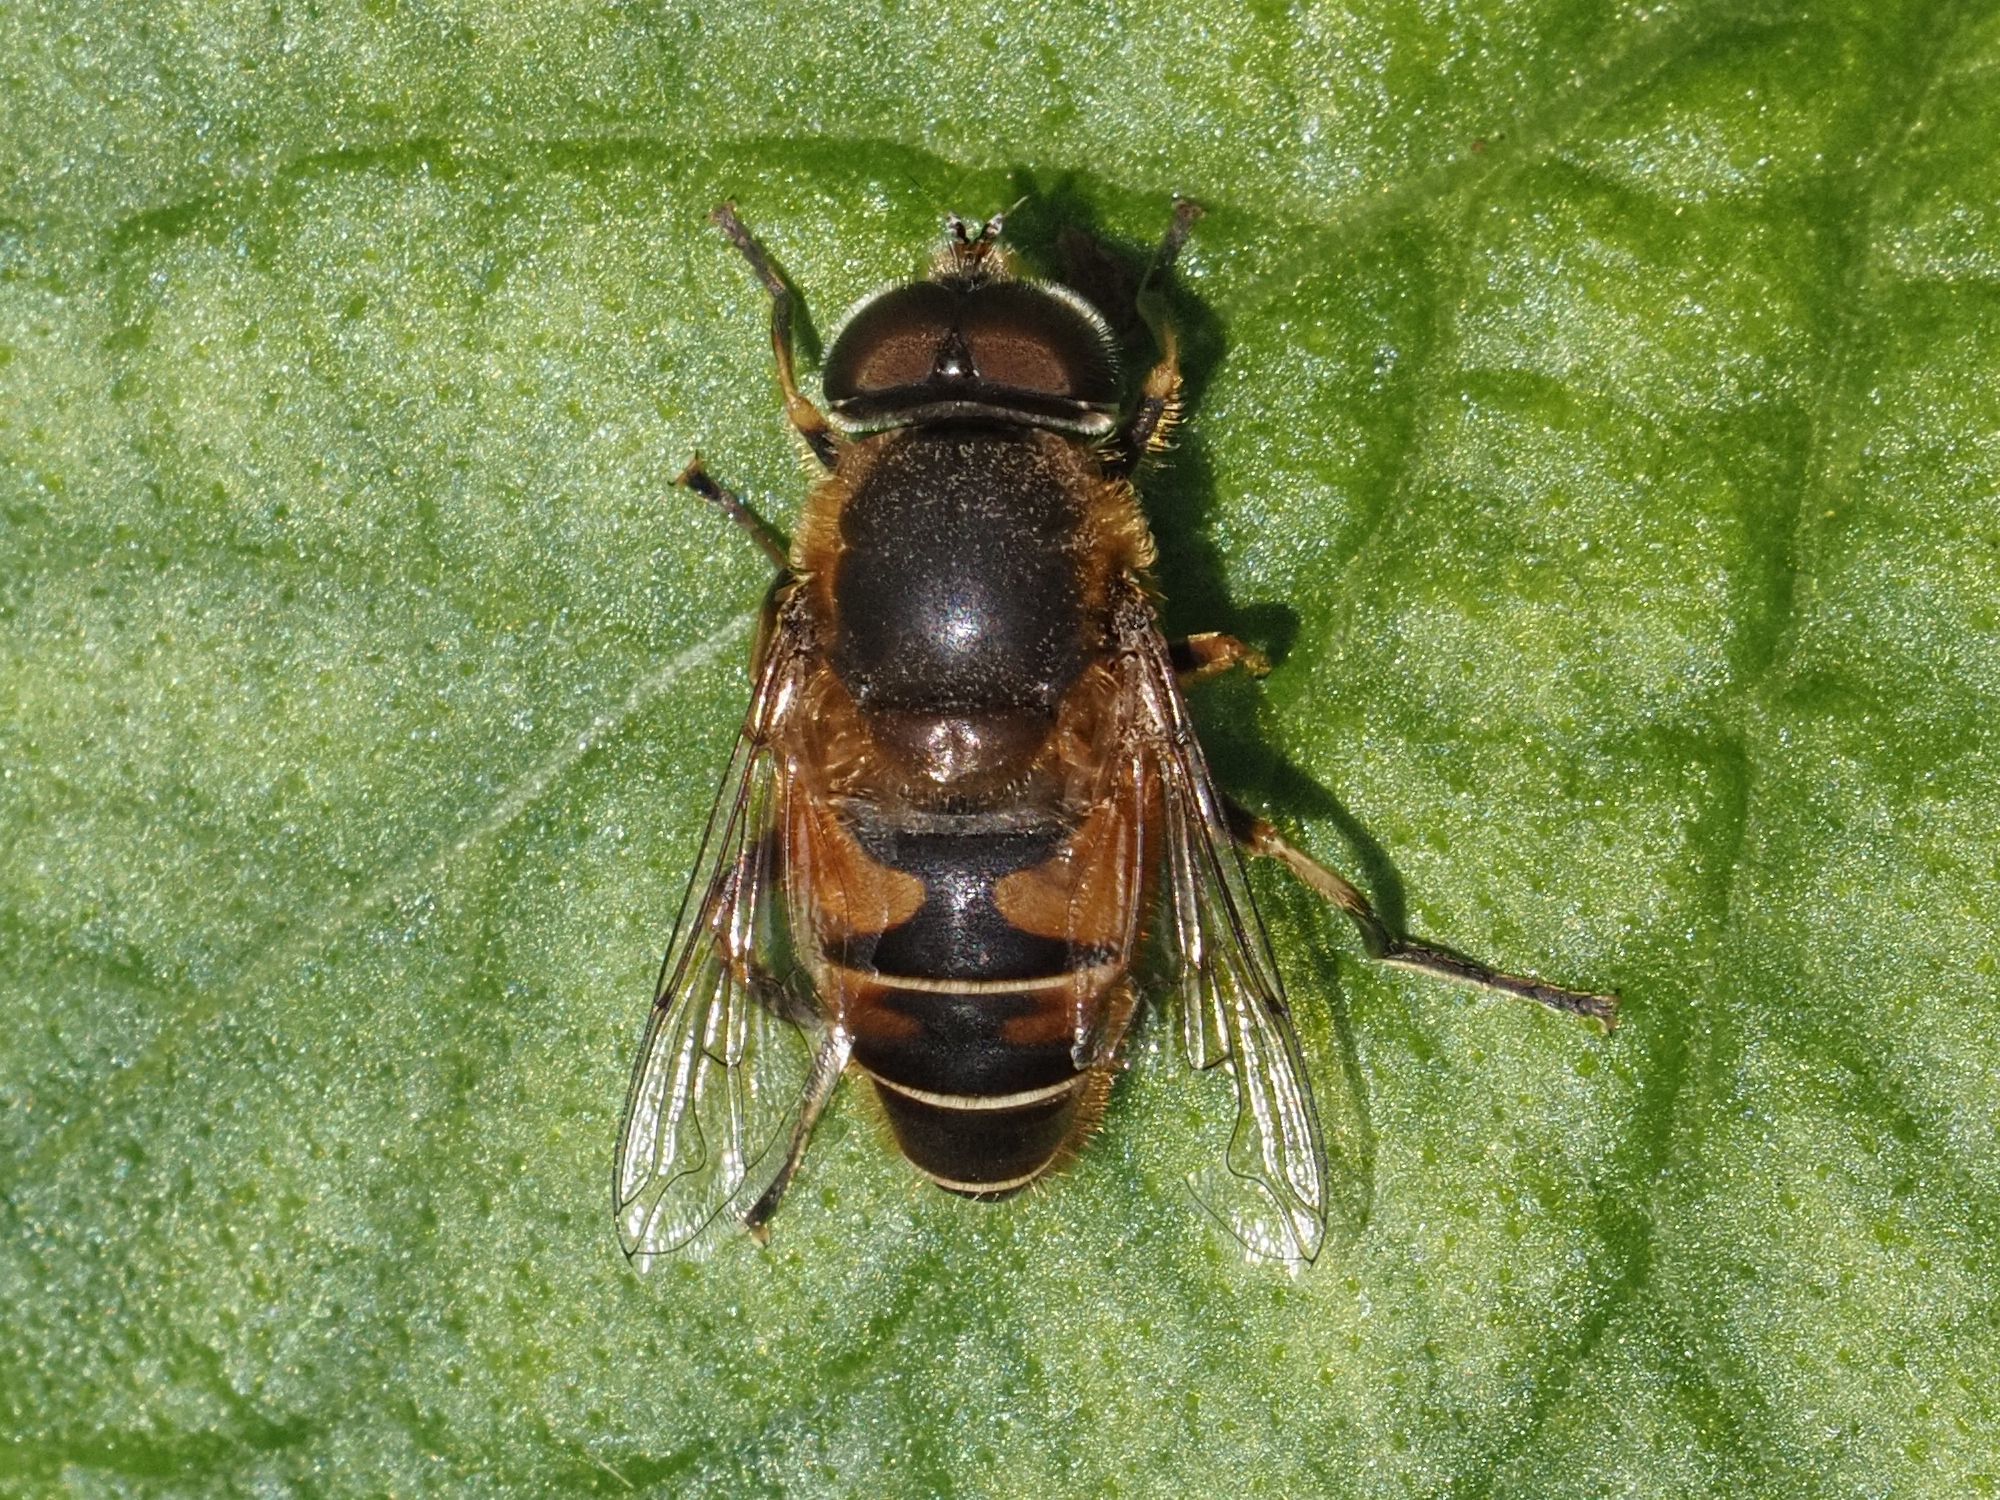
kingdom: Animalia
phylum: Arthropoda
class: Insecta
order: Diptera
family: Syrphidae
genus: Eristalis
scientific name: Eristalis nemorum
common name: Orange-spined drone fly
